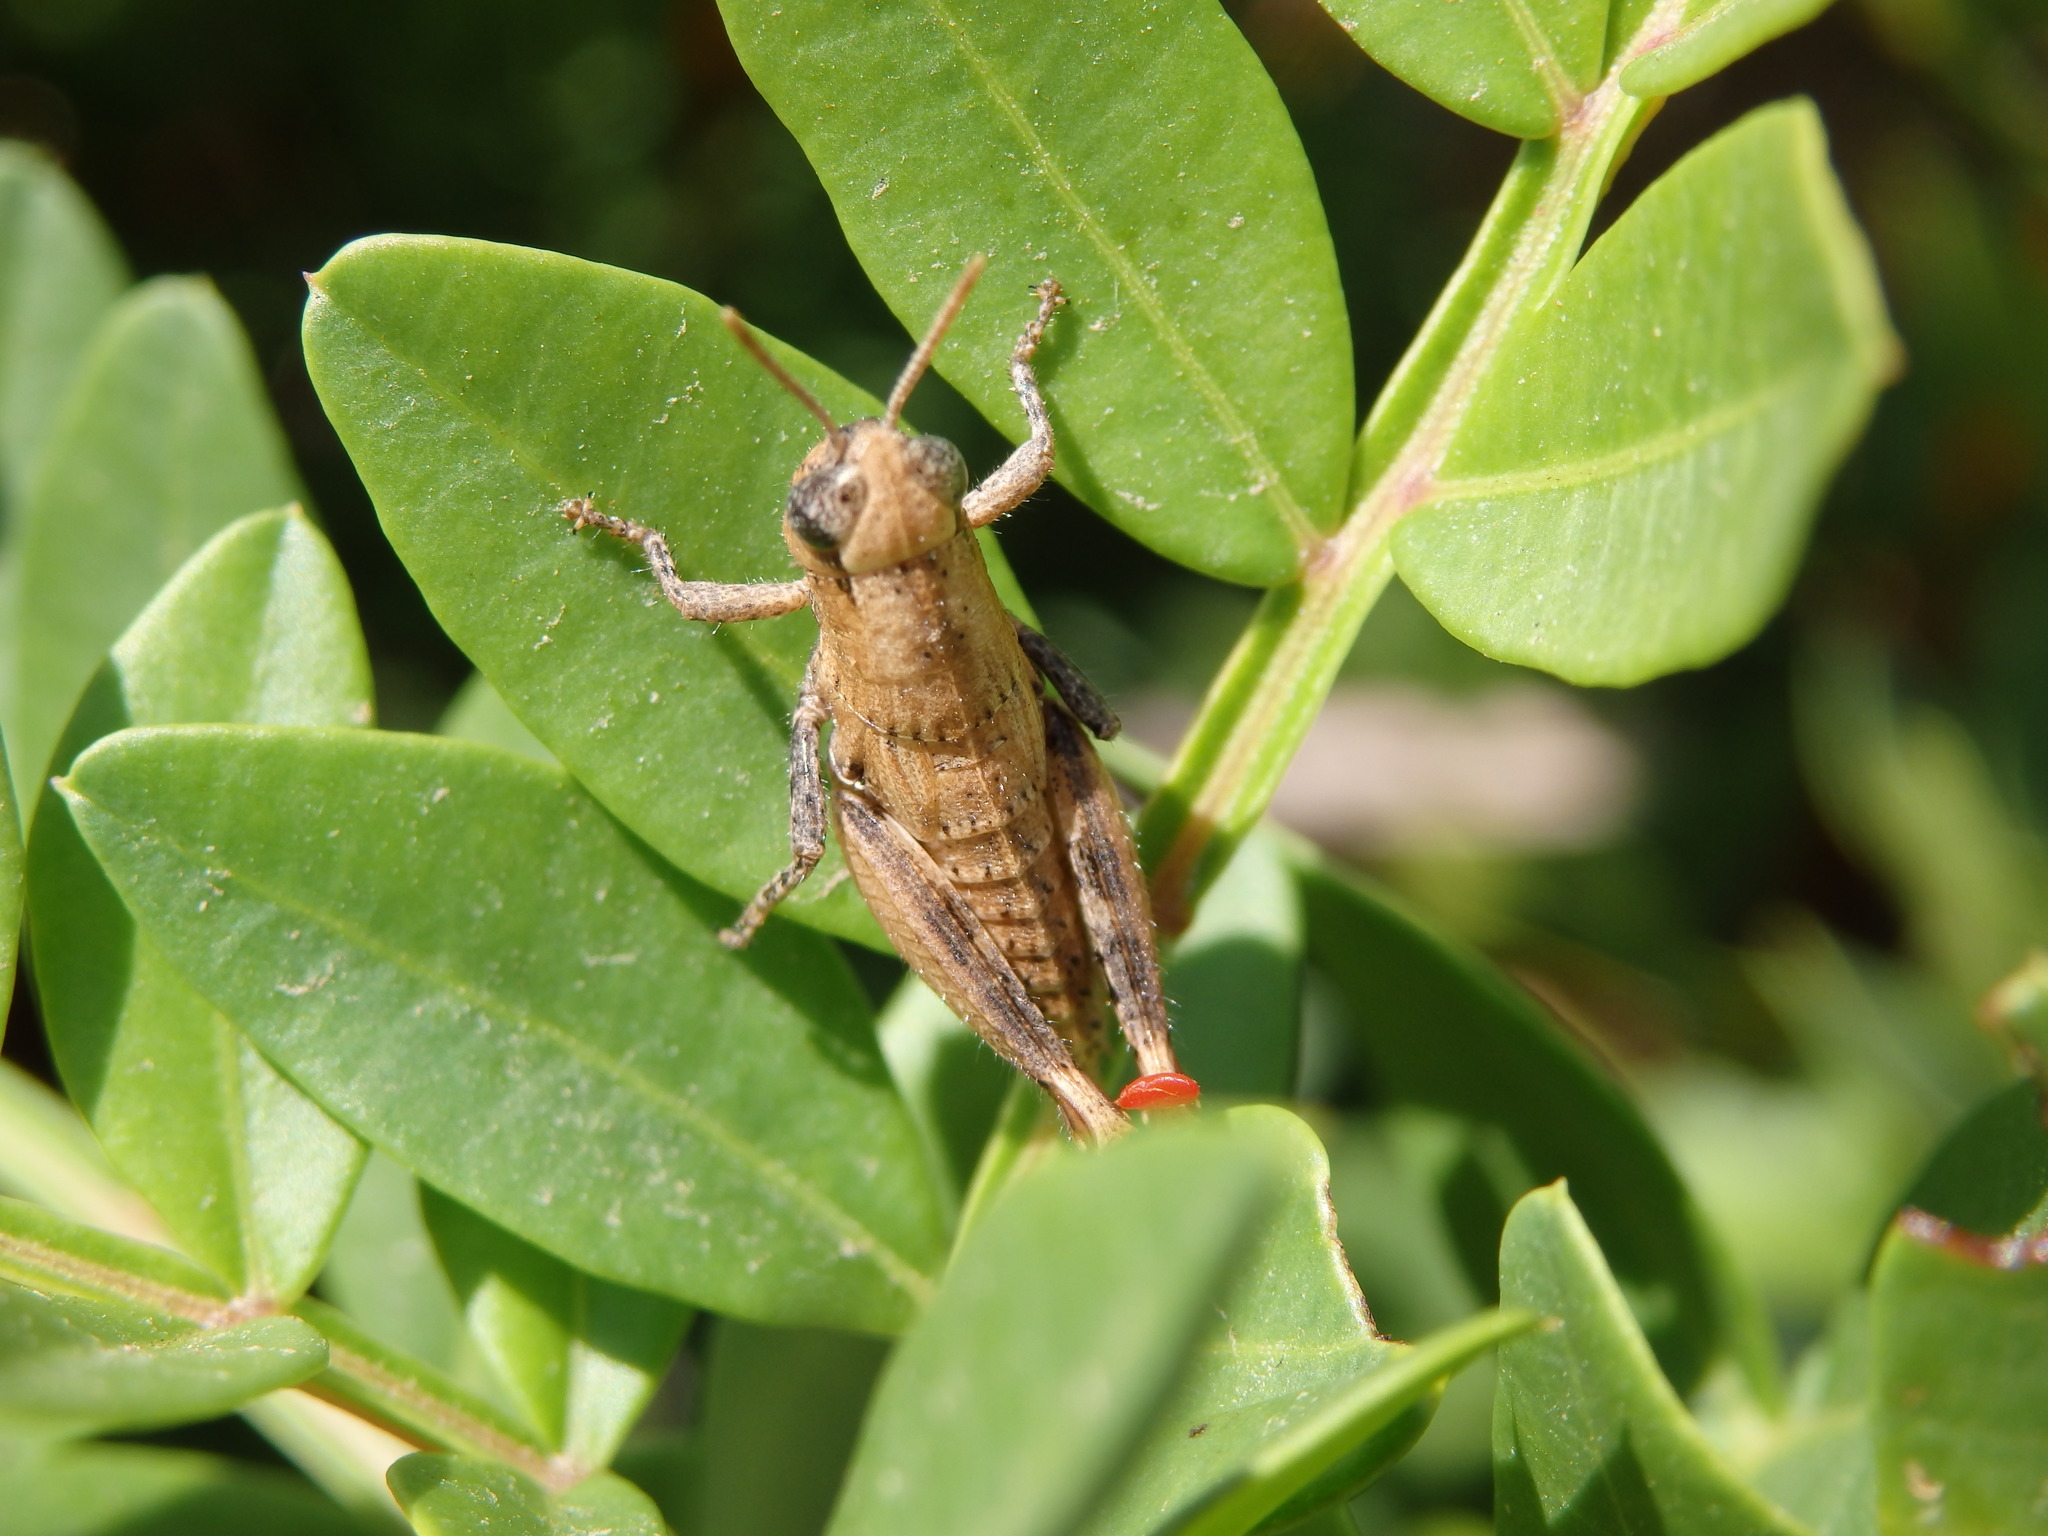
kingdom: Animalia
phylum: Arthropoda
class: Insecta
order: Orthoptera
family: Acrididae
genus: Pezotettix
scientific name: Pezotettix giornae
